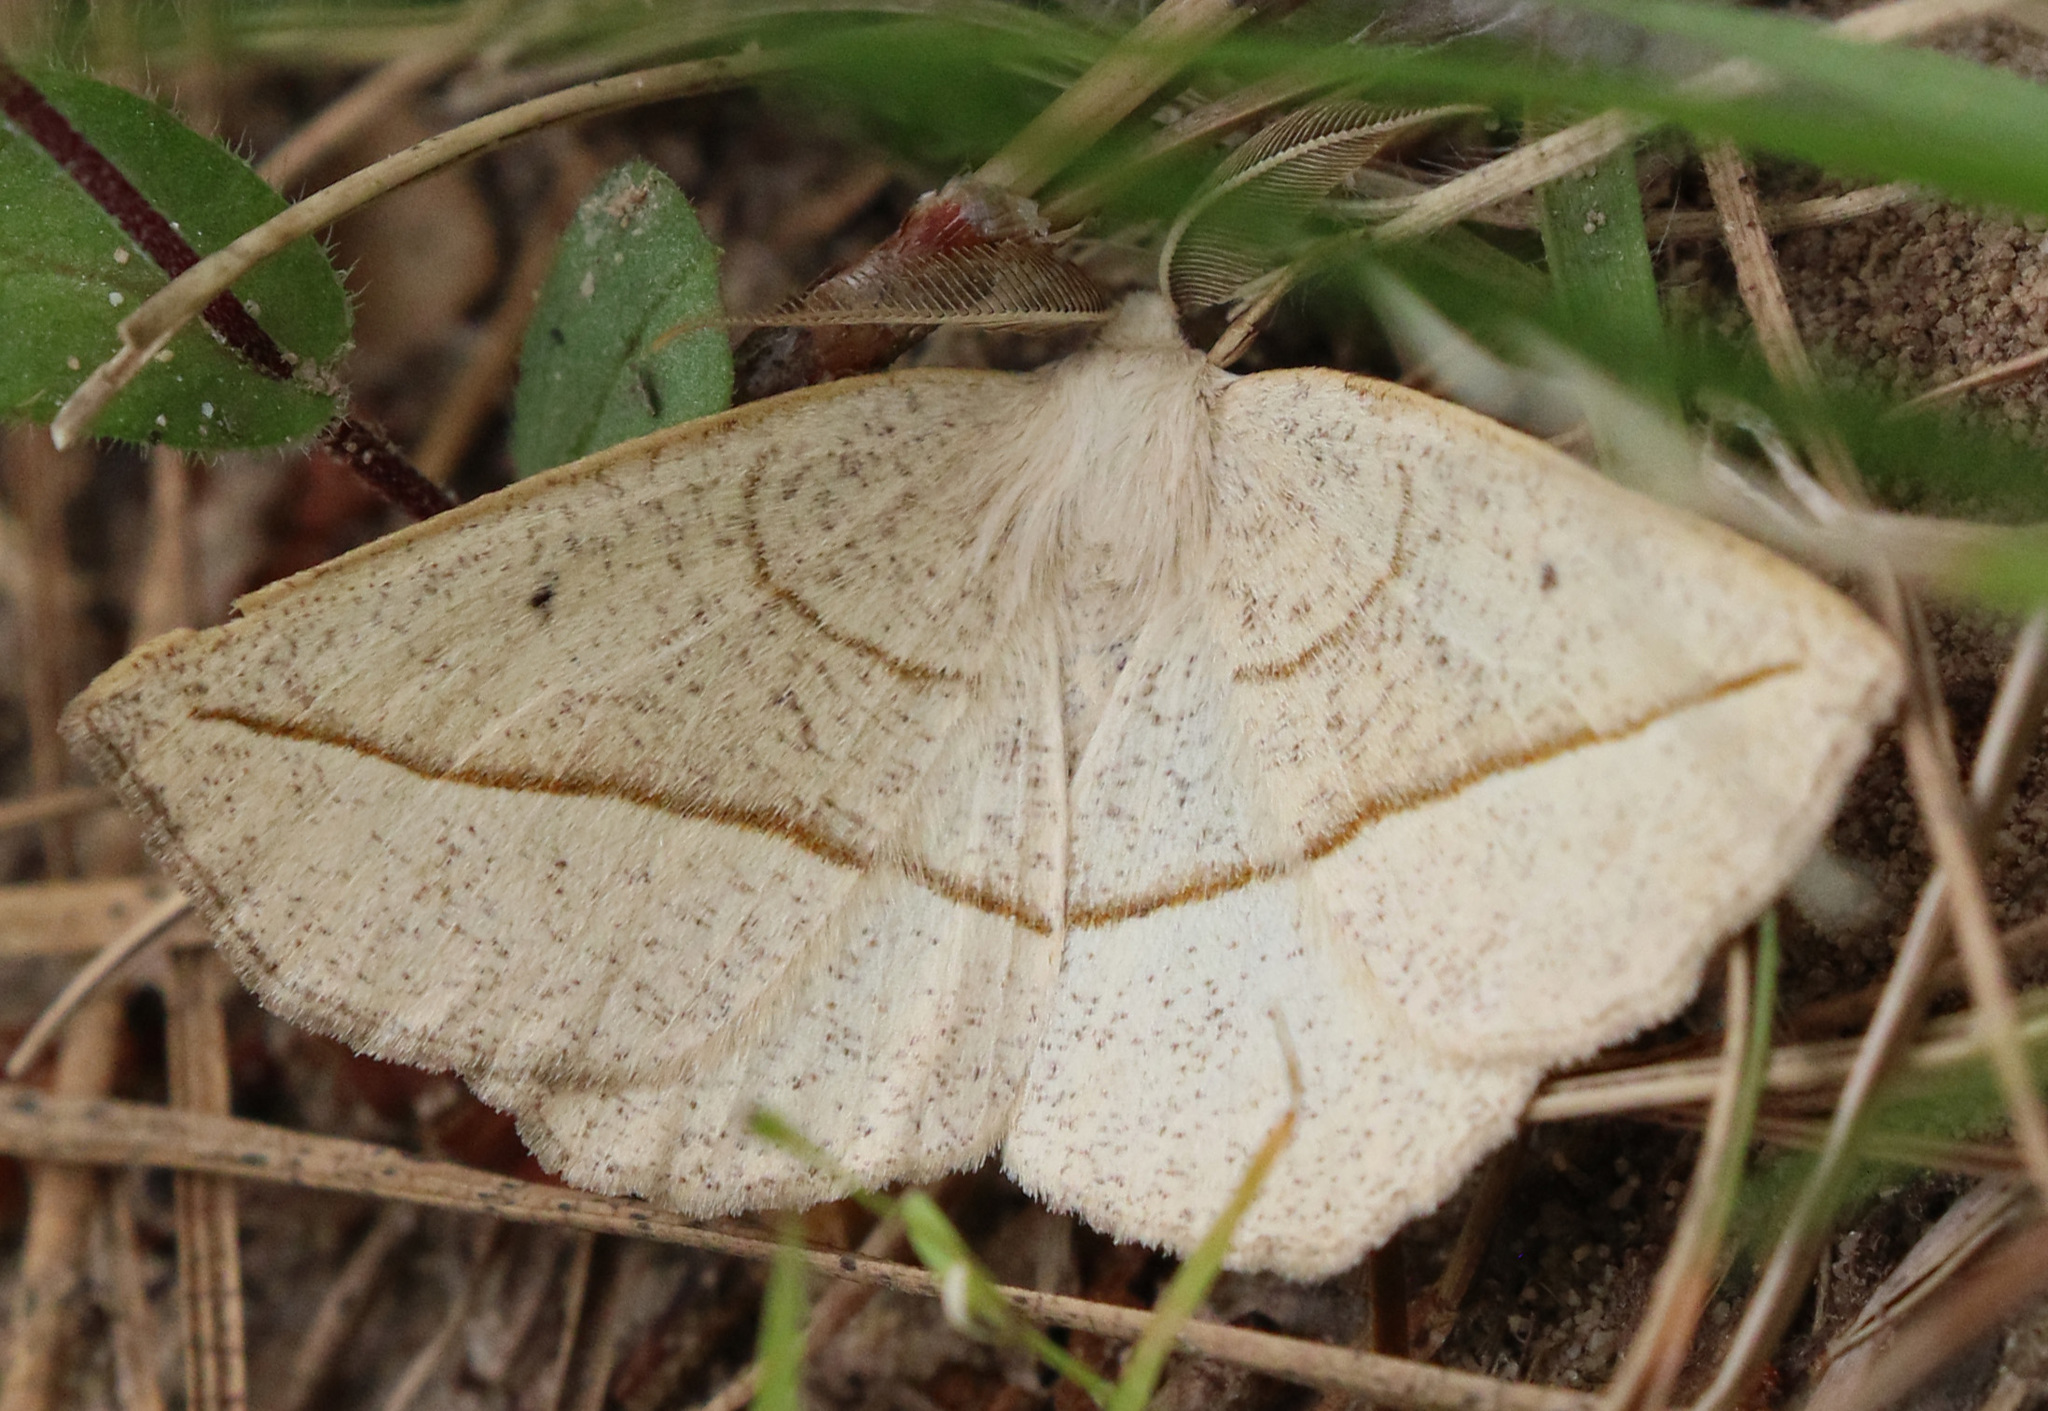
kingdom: Animalia
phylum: Arthropoda
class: Insecta
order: Lepidoptera
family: Geometridae
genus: Eusarca
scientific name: Eusarca confusaria
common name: Confused eusarca
